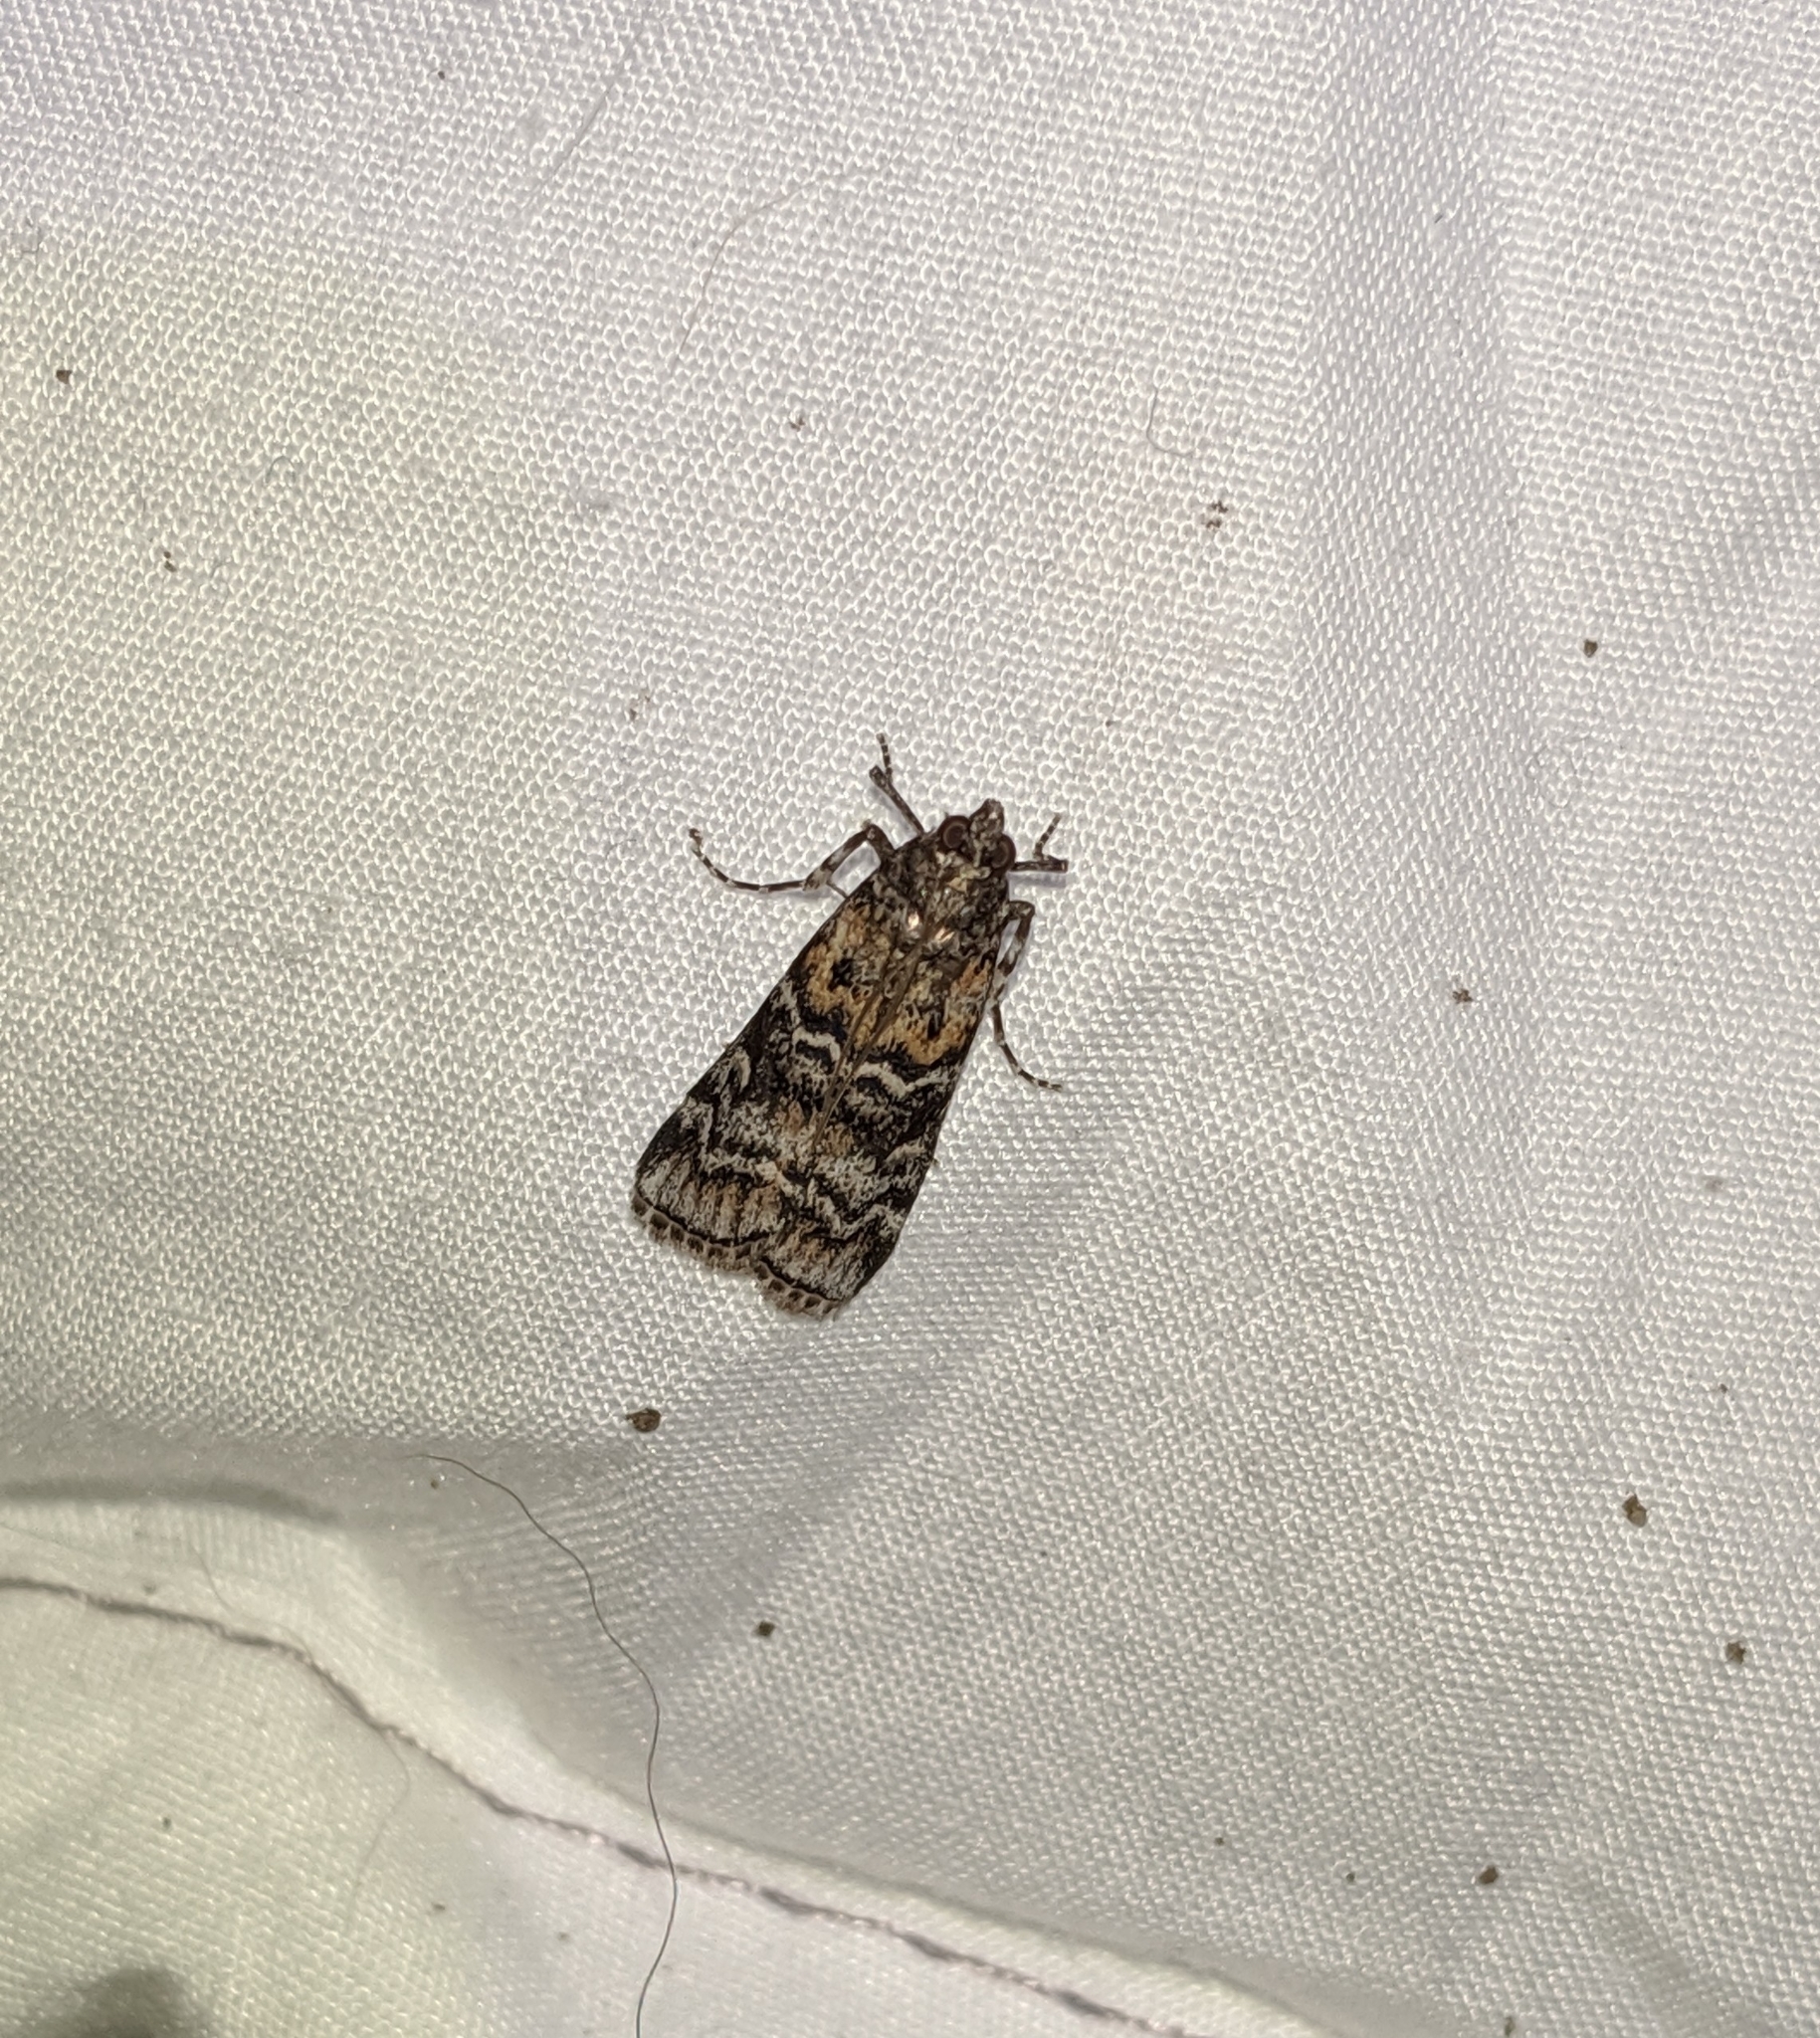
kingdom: Animalia
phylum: Arthropoda
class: Insecta
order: Lepidoptera
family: Pyralidae
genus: Dioryctria
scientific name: Dioryctria banksiella
